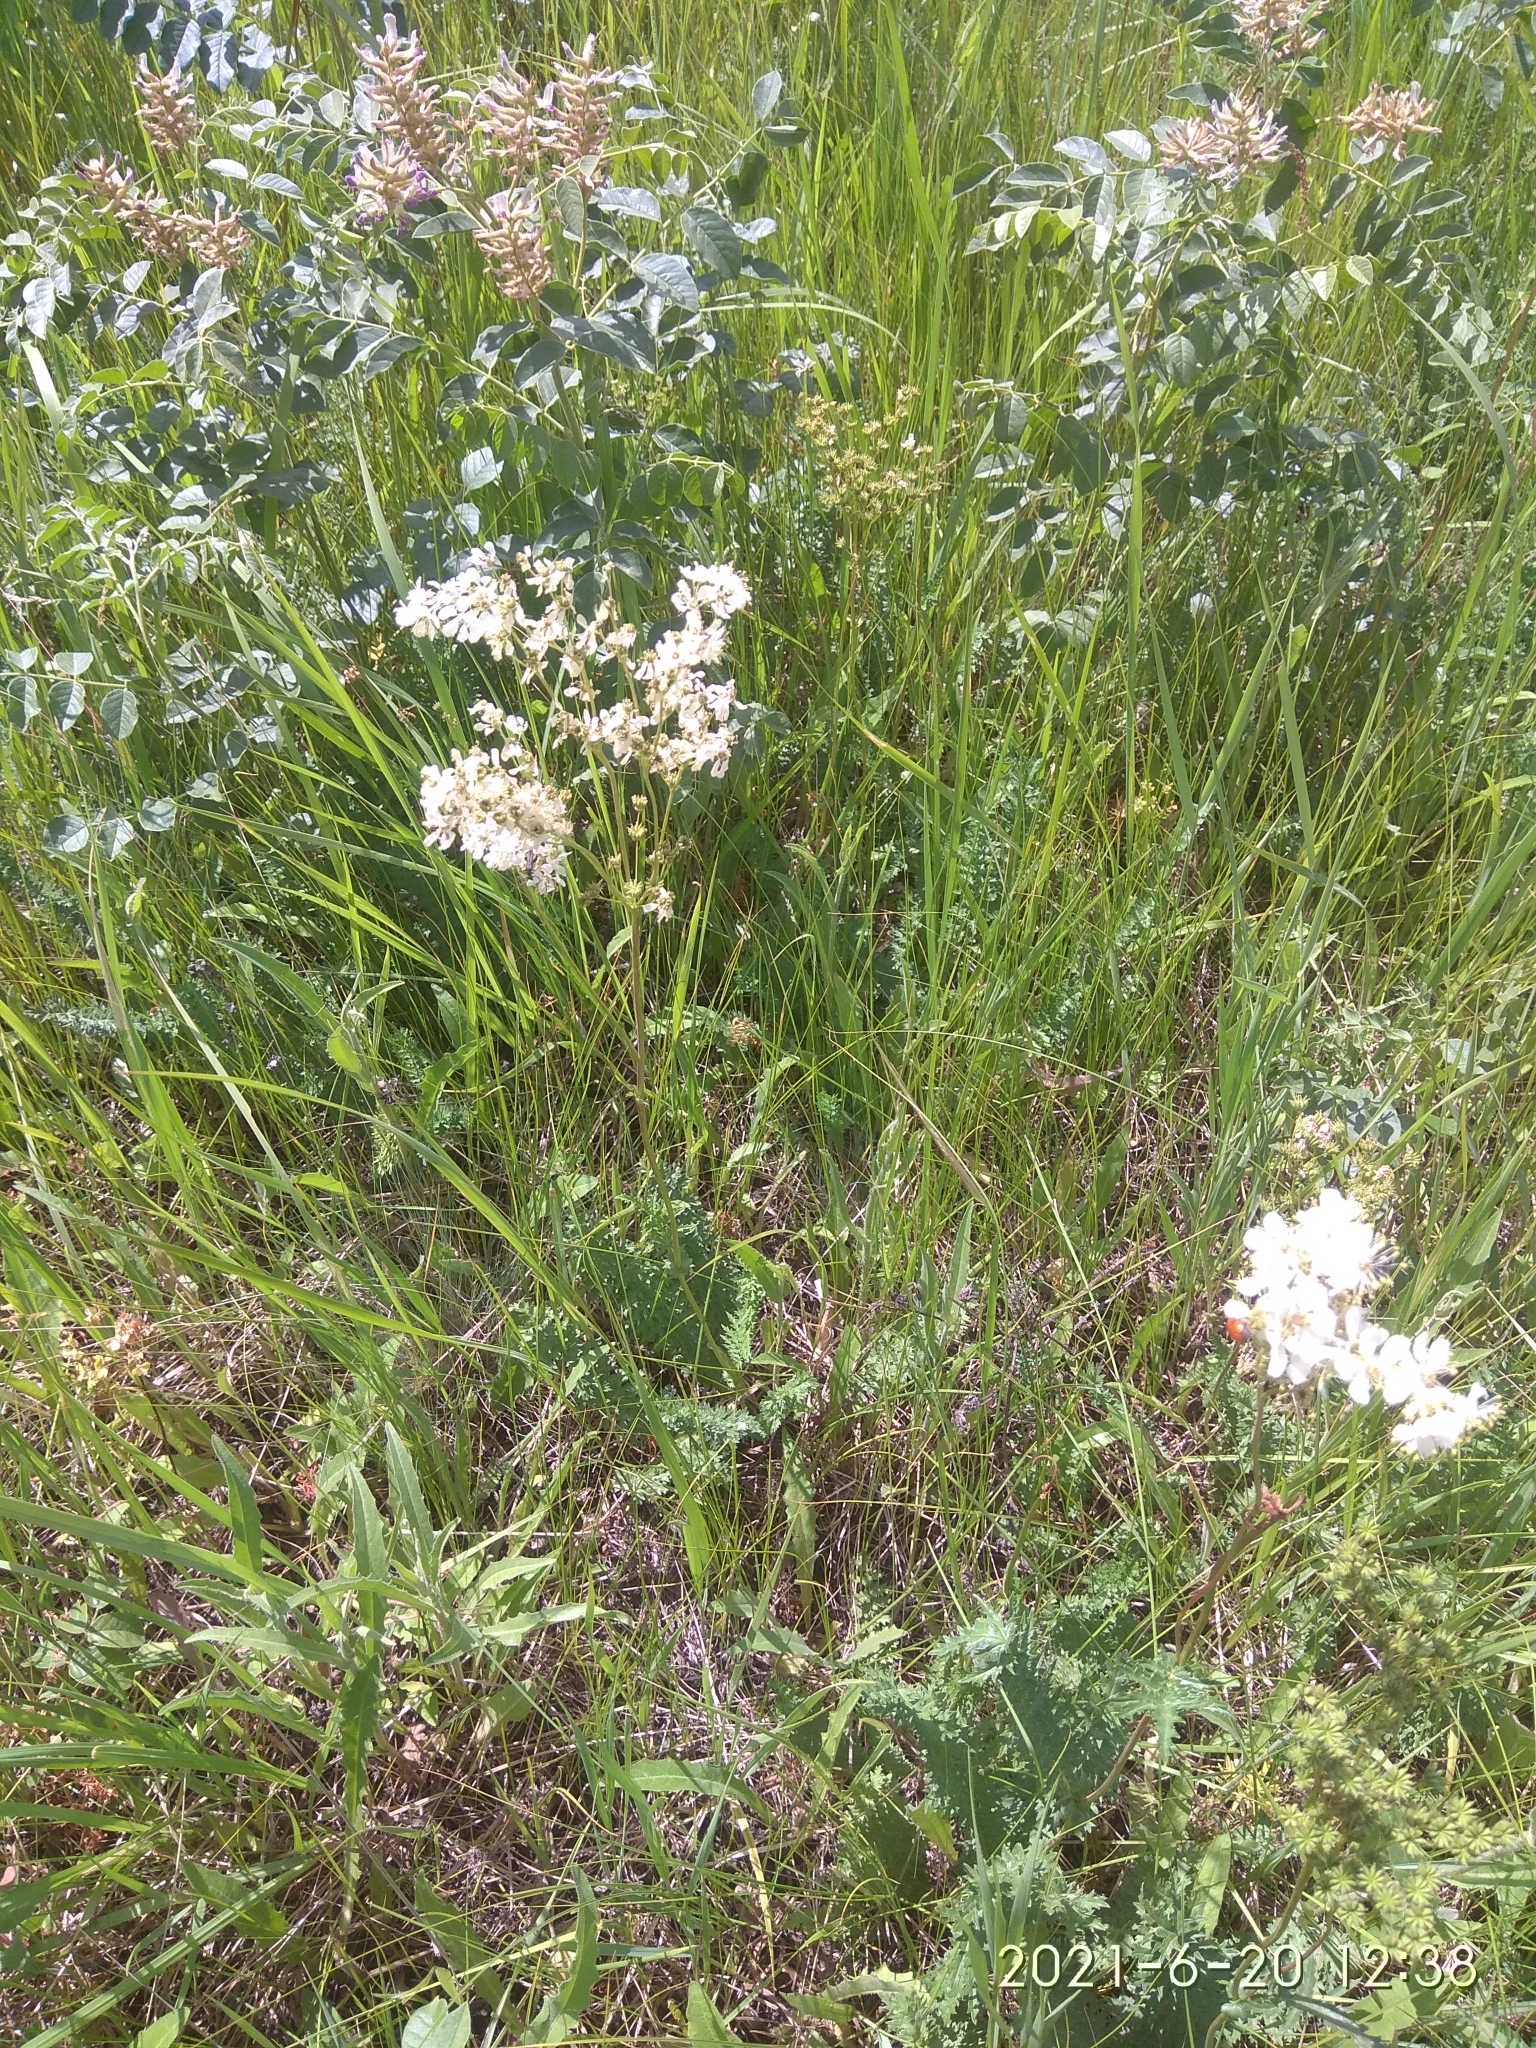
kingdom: Plantae
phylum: Tracheophyta
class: Magnoliopsida
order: Rosales
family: Rosaceae
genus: Filipendula
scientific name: Filipendula vulgaris
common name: Dropwort
